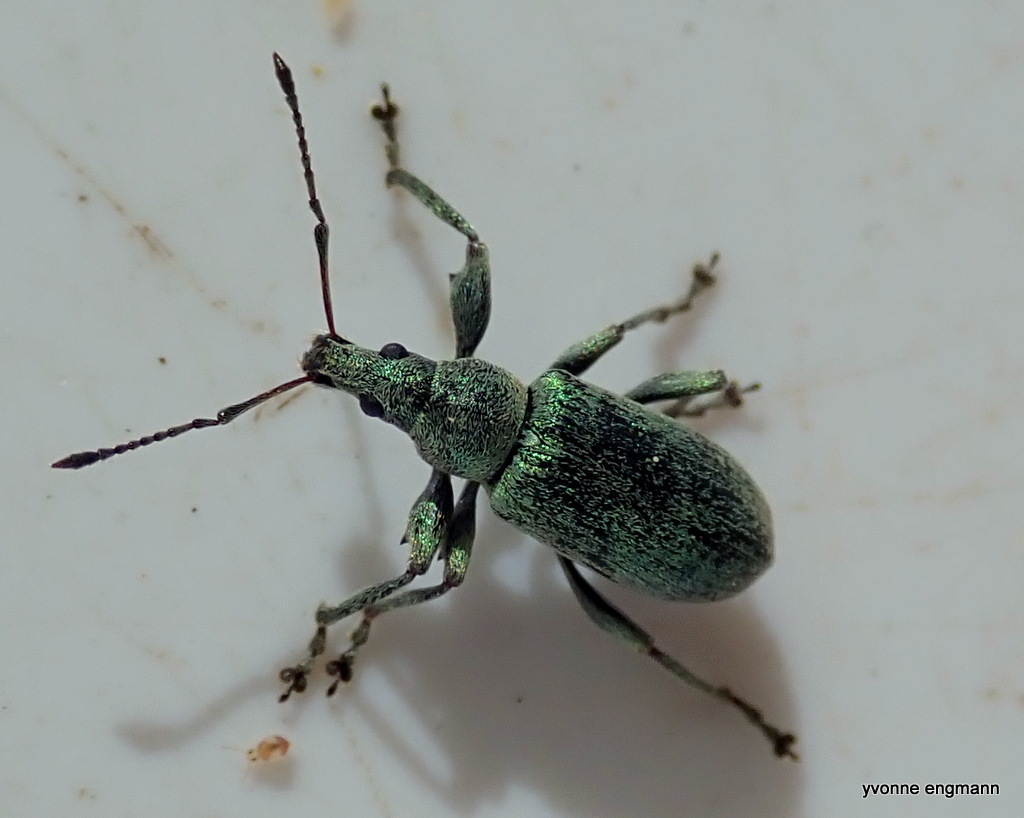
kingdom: Animalia
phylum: Arthropoda
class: Insecta
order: Coleoptera
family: Curculionidae
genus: Phyllobius
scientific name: Phyllobius pomaceus
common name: Green nettle weevil
